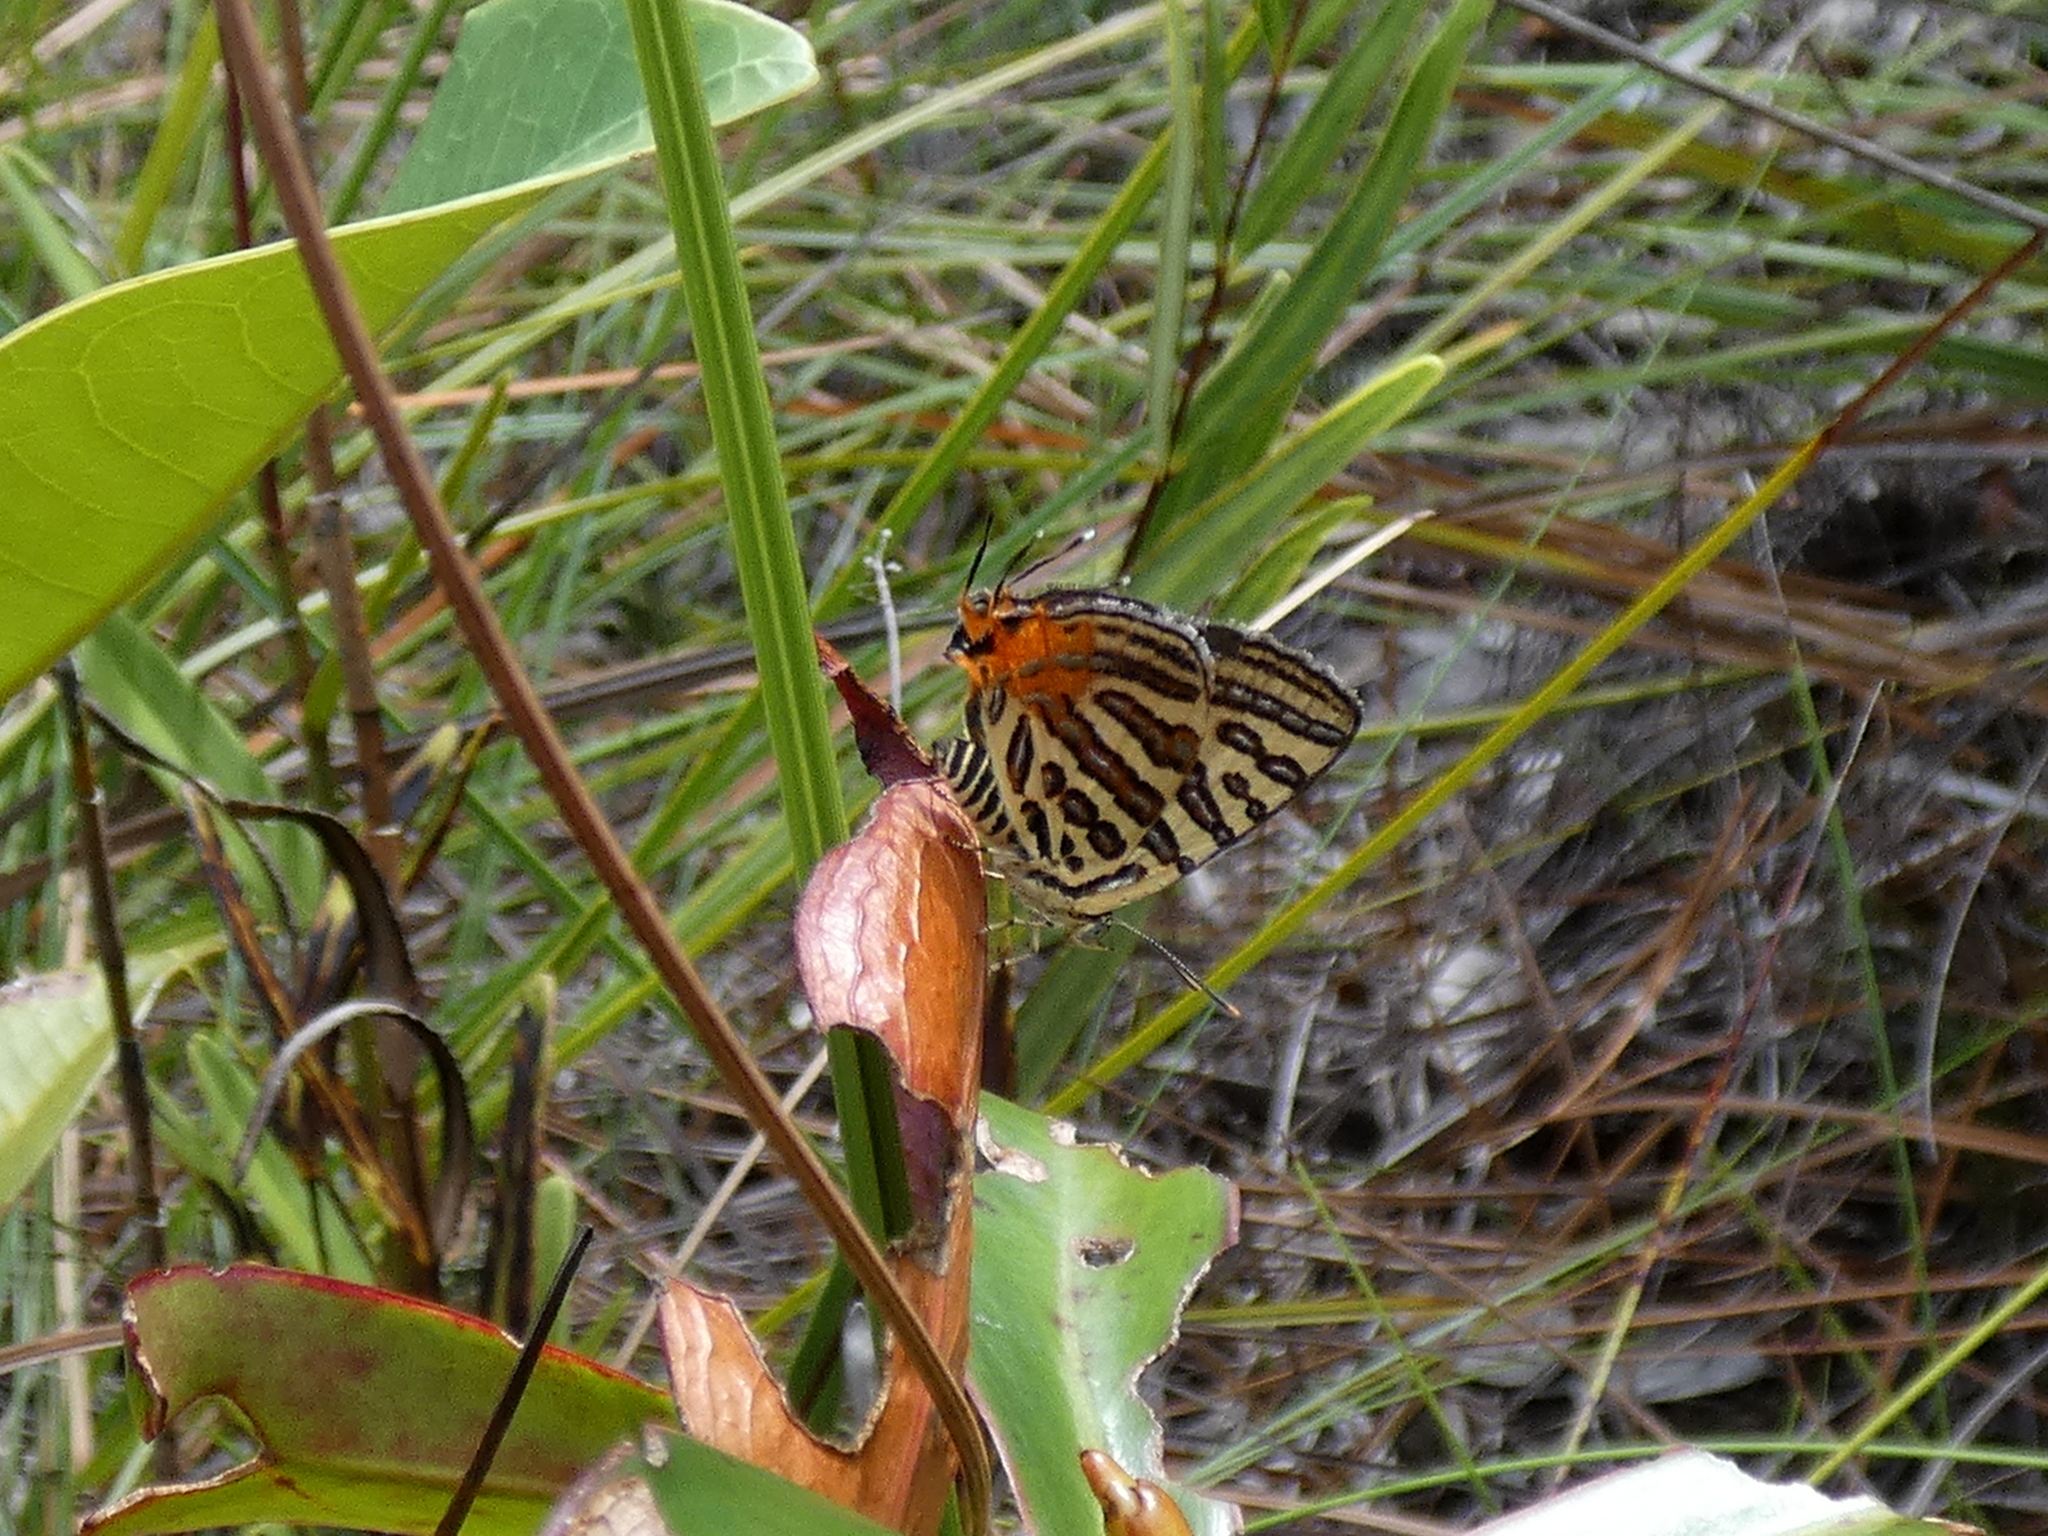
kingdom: Animalia
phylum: Arthropoda
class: Insecta
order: Lepidoptera
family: Lycaenidae
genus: Cigaritis
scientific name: Cigaritis syama
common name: Club silverline
